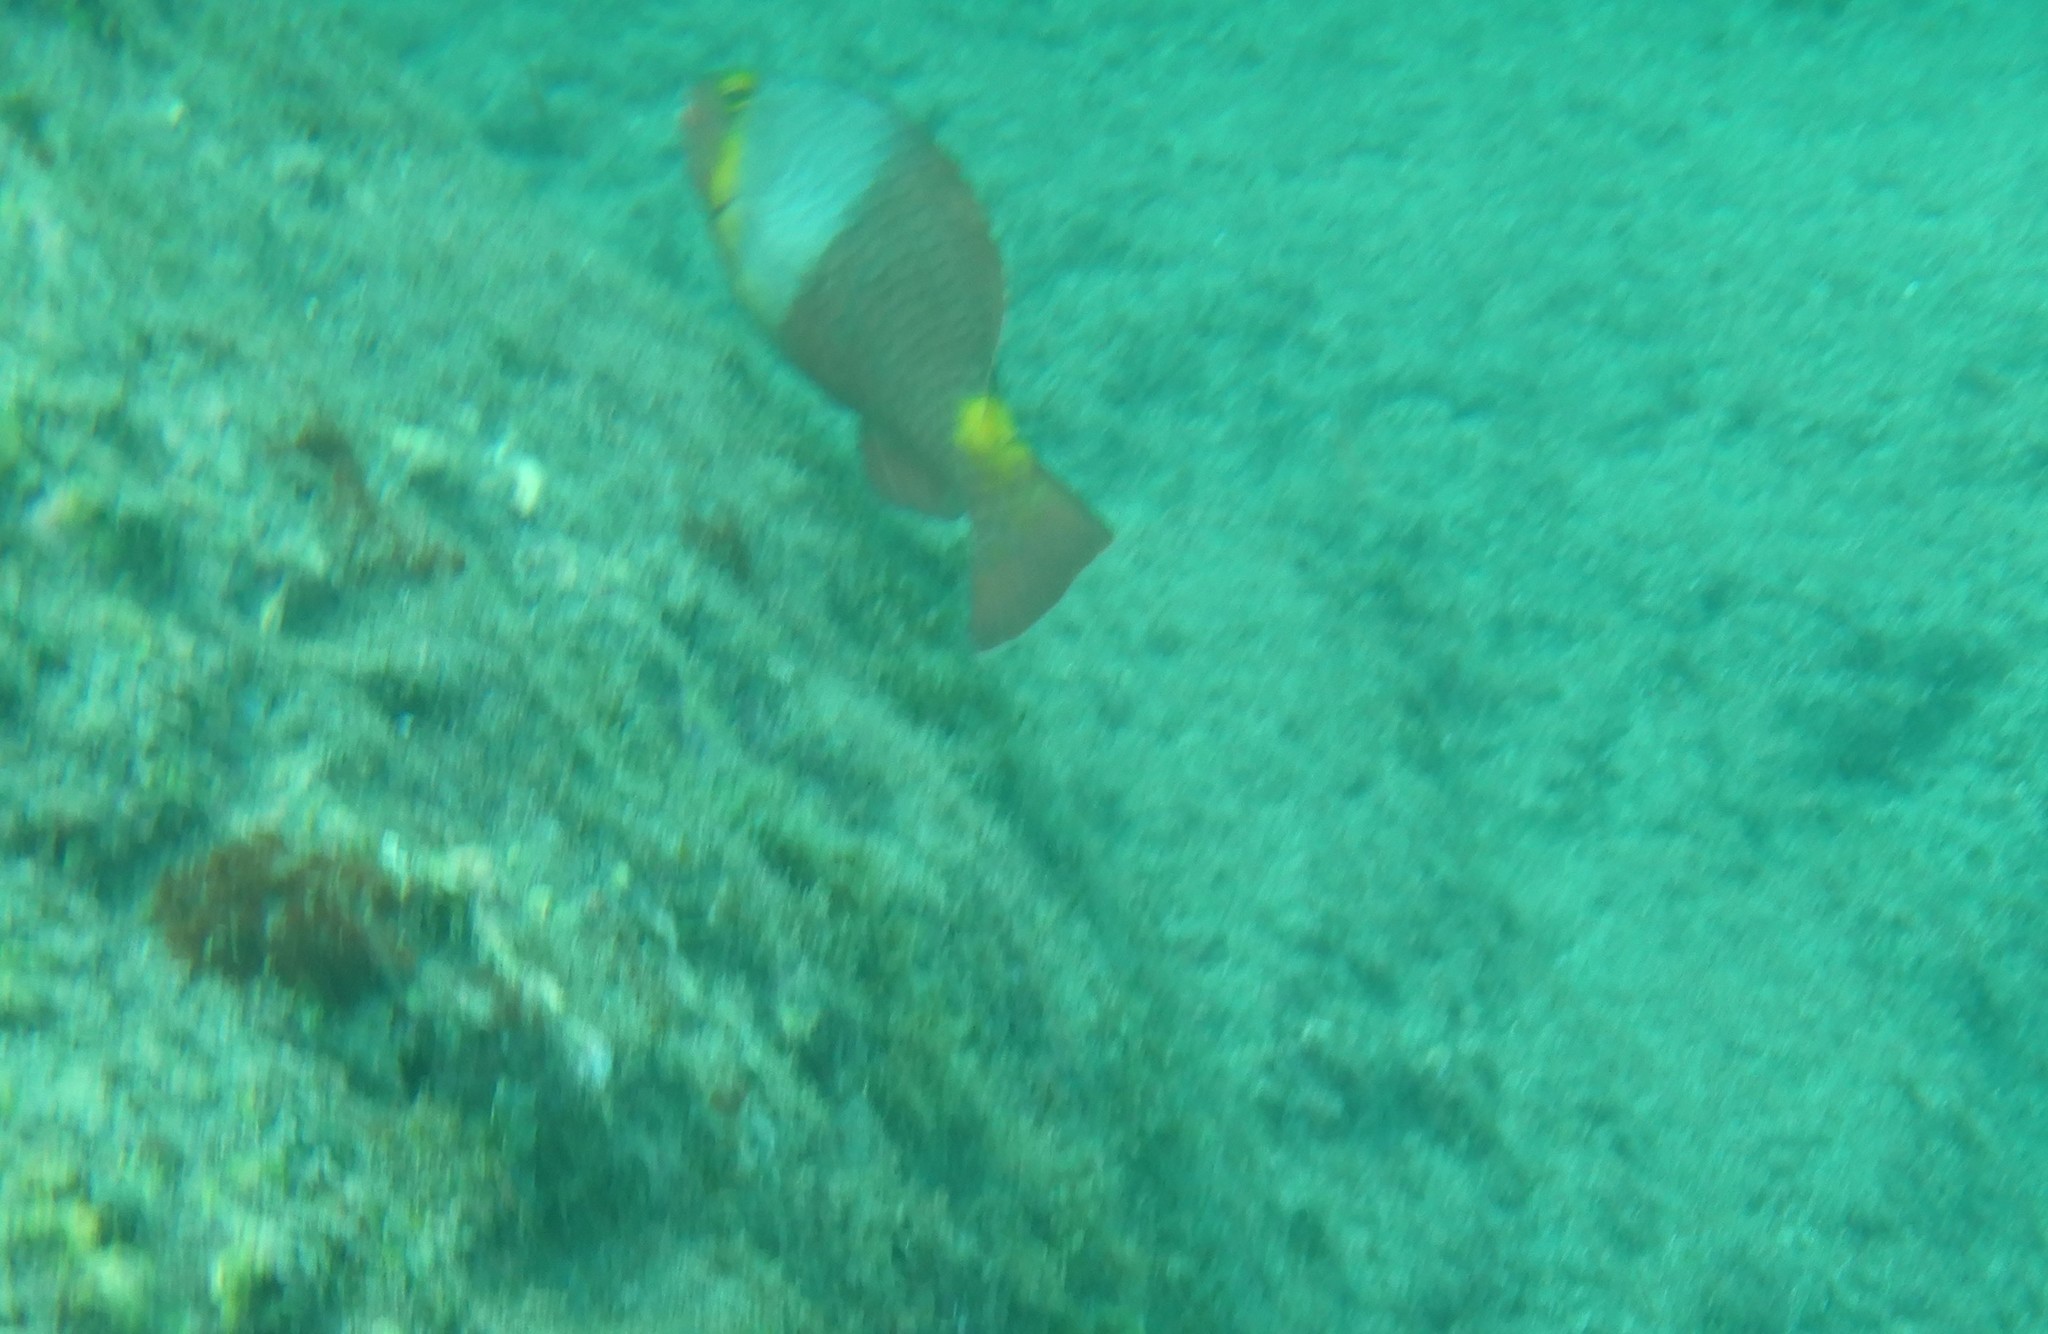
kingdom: Animalia
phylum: Chordata
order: Perciformes
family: Scaridae
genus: Sparisoma
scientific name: Sparisoma cretense
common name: Parrotfish
